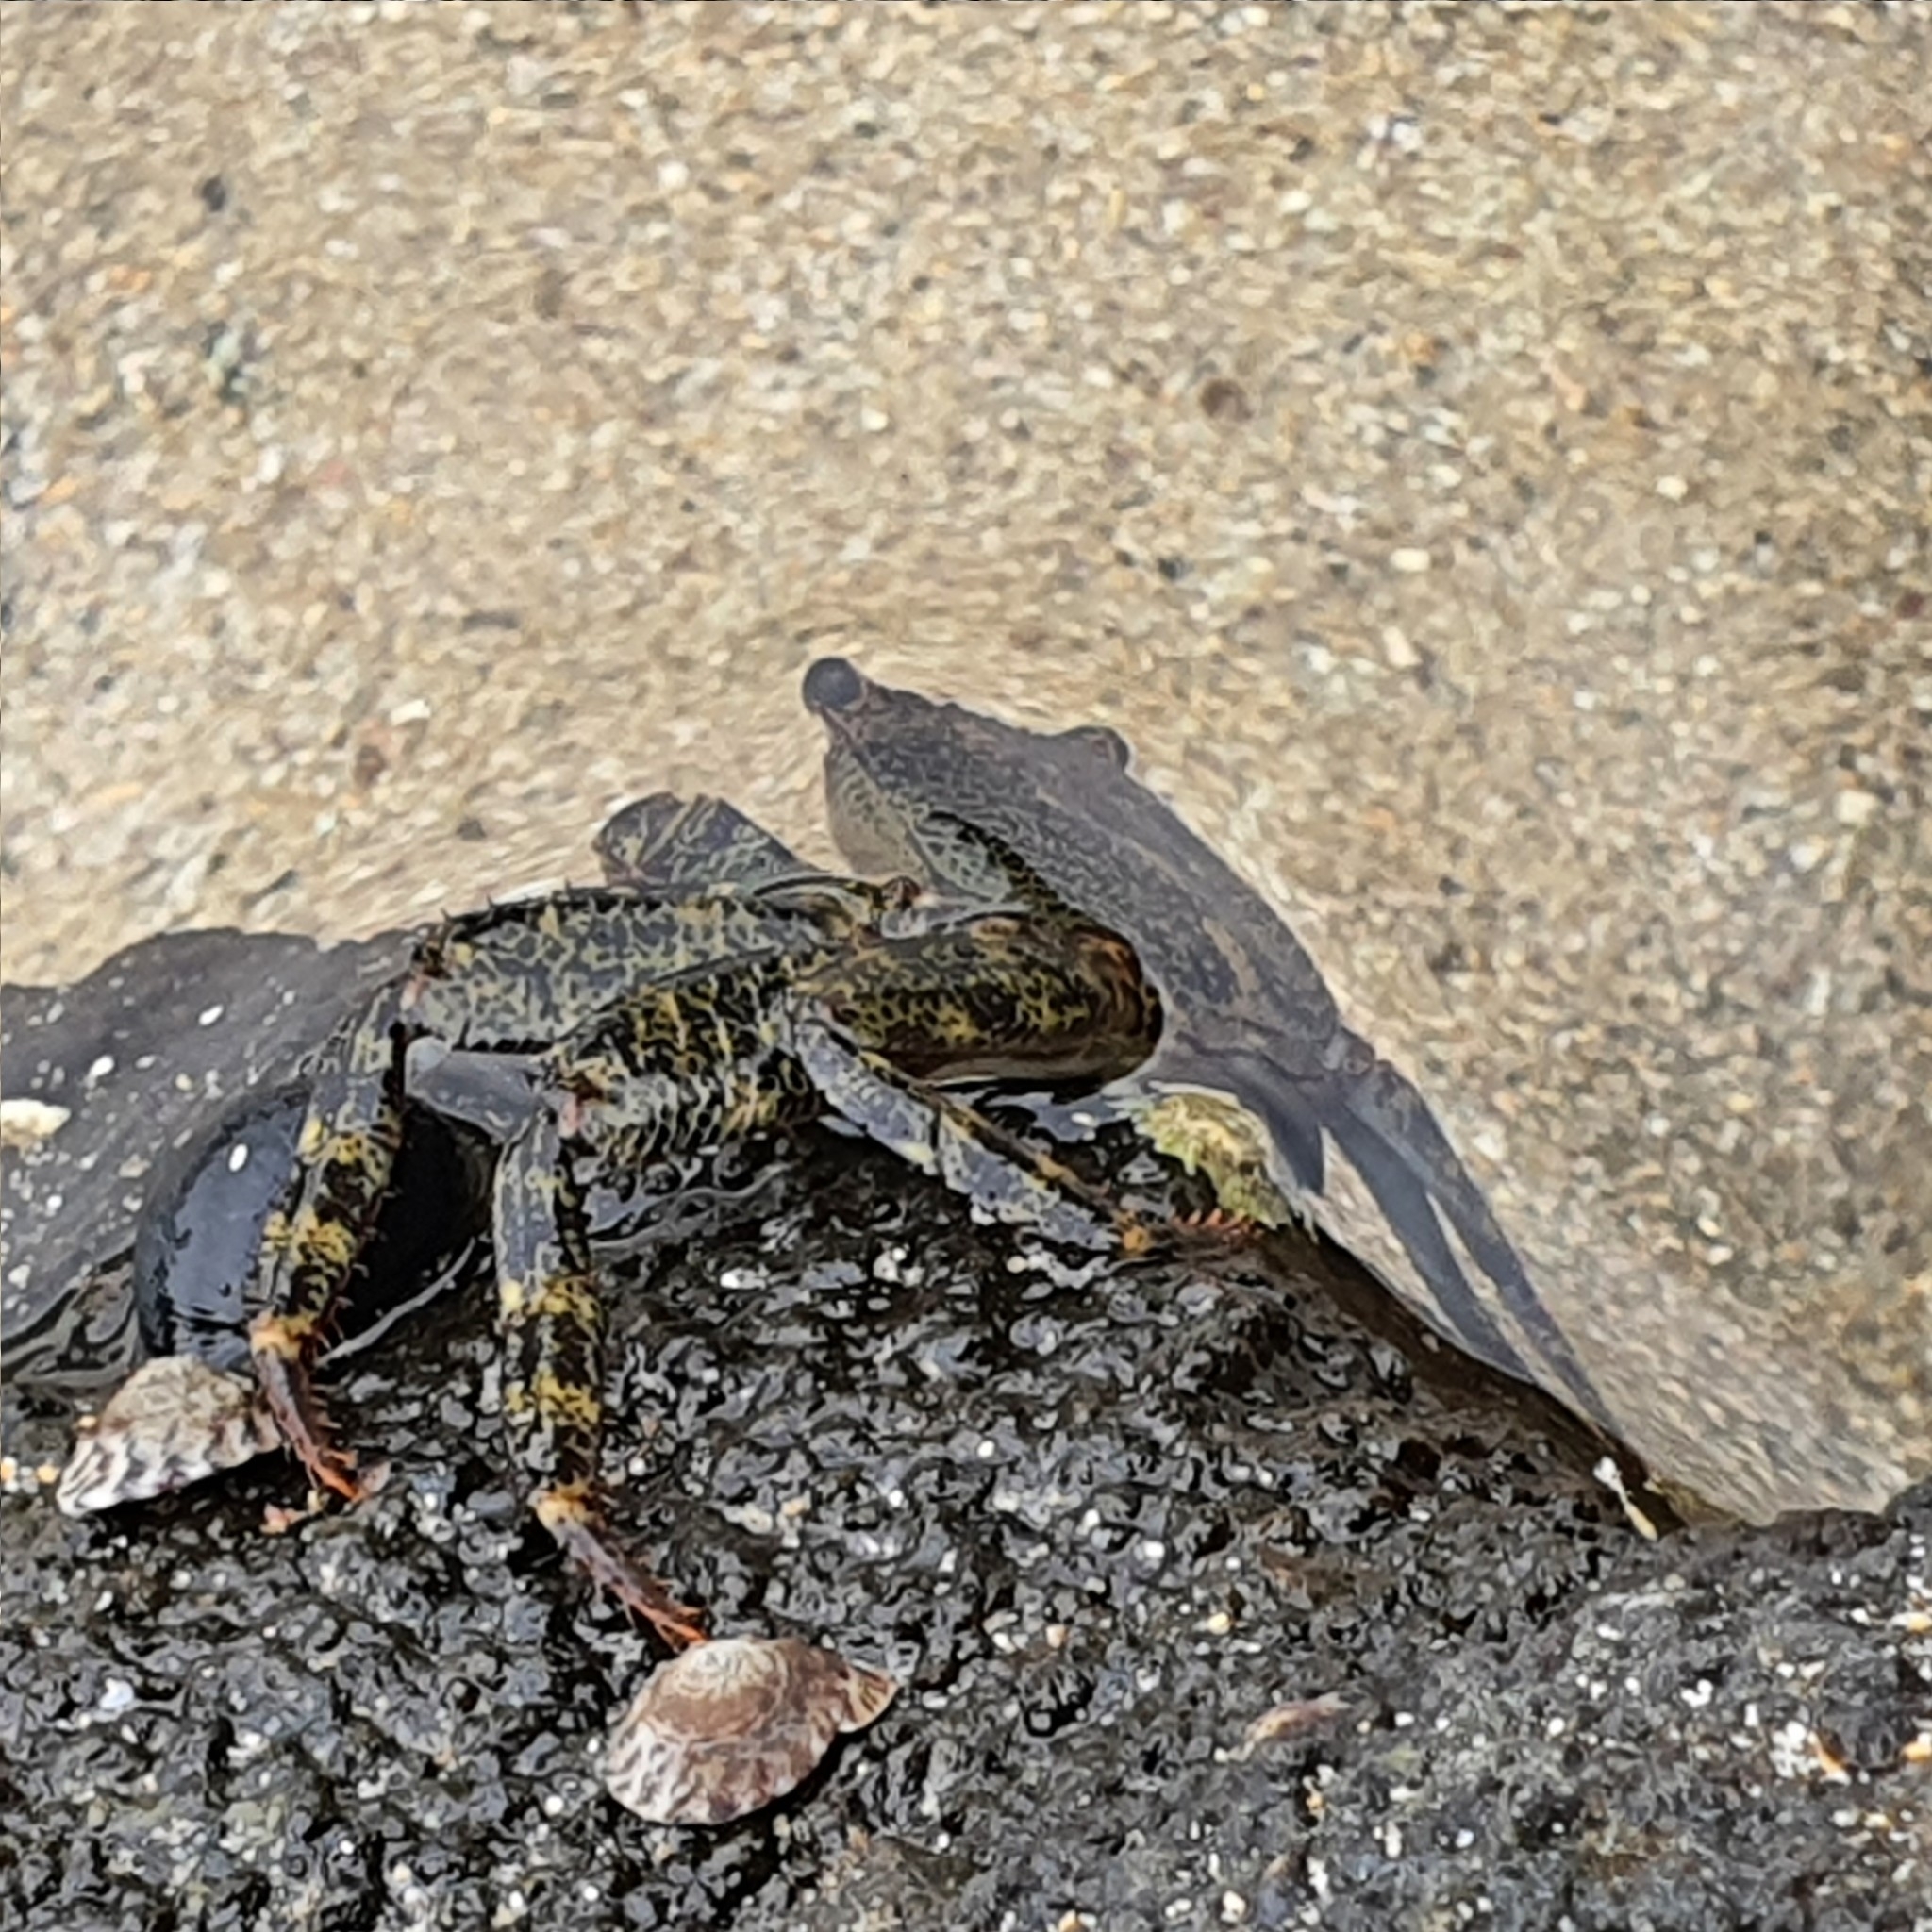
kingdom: Animalia
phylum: Arthropoda
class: Malacostraca
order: Decapoda
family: Grapsidae
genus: Leptograpsus
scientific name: Leptograpsus variegatus
